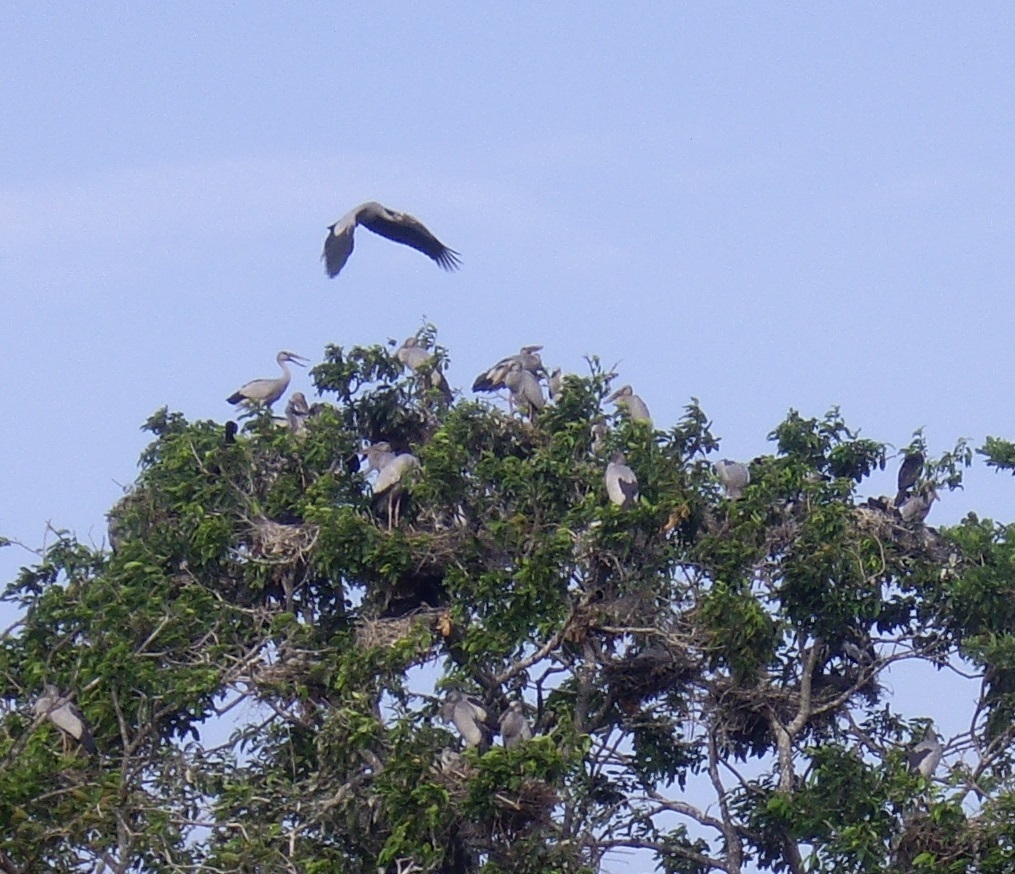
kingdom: Animalia
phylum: Chordata
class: Aves
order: Ciconiiformes
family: Ciconiidae
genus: Anastomus
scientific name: Anastomus oscitans
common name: Asian openbill
